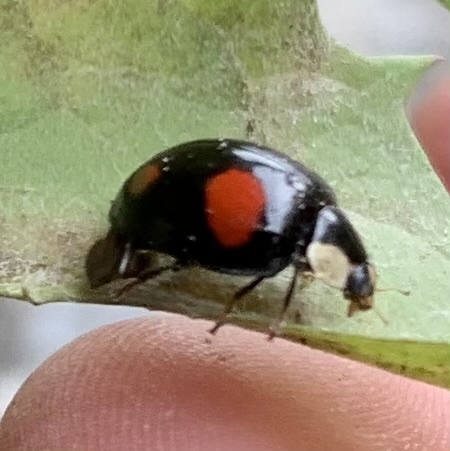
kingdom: Animalia
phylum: Arthropoda
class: Insecta
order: Coleoptera
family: Coccinellidae
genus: Harmonia
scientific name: Harmonia axyridis
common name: Harlequin ladybird
